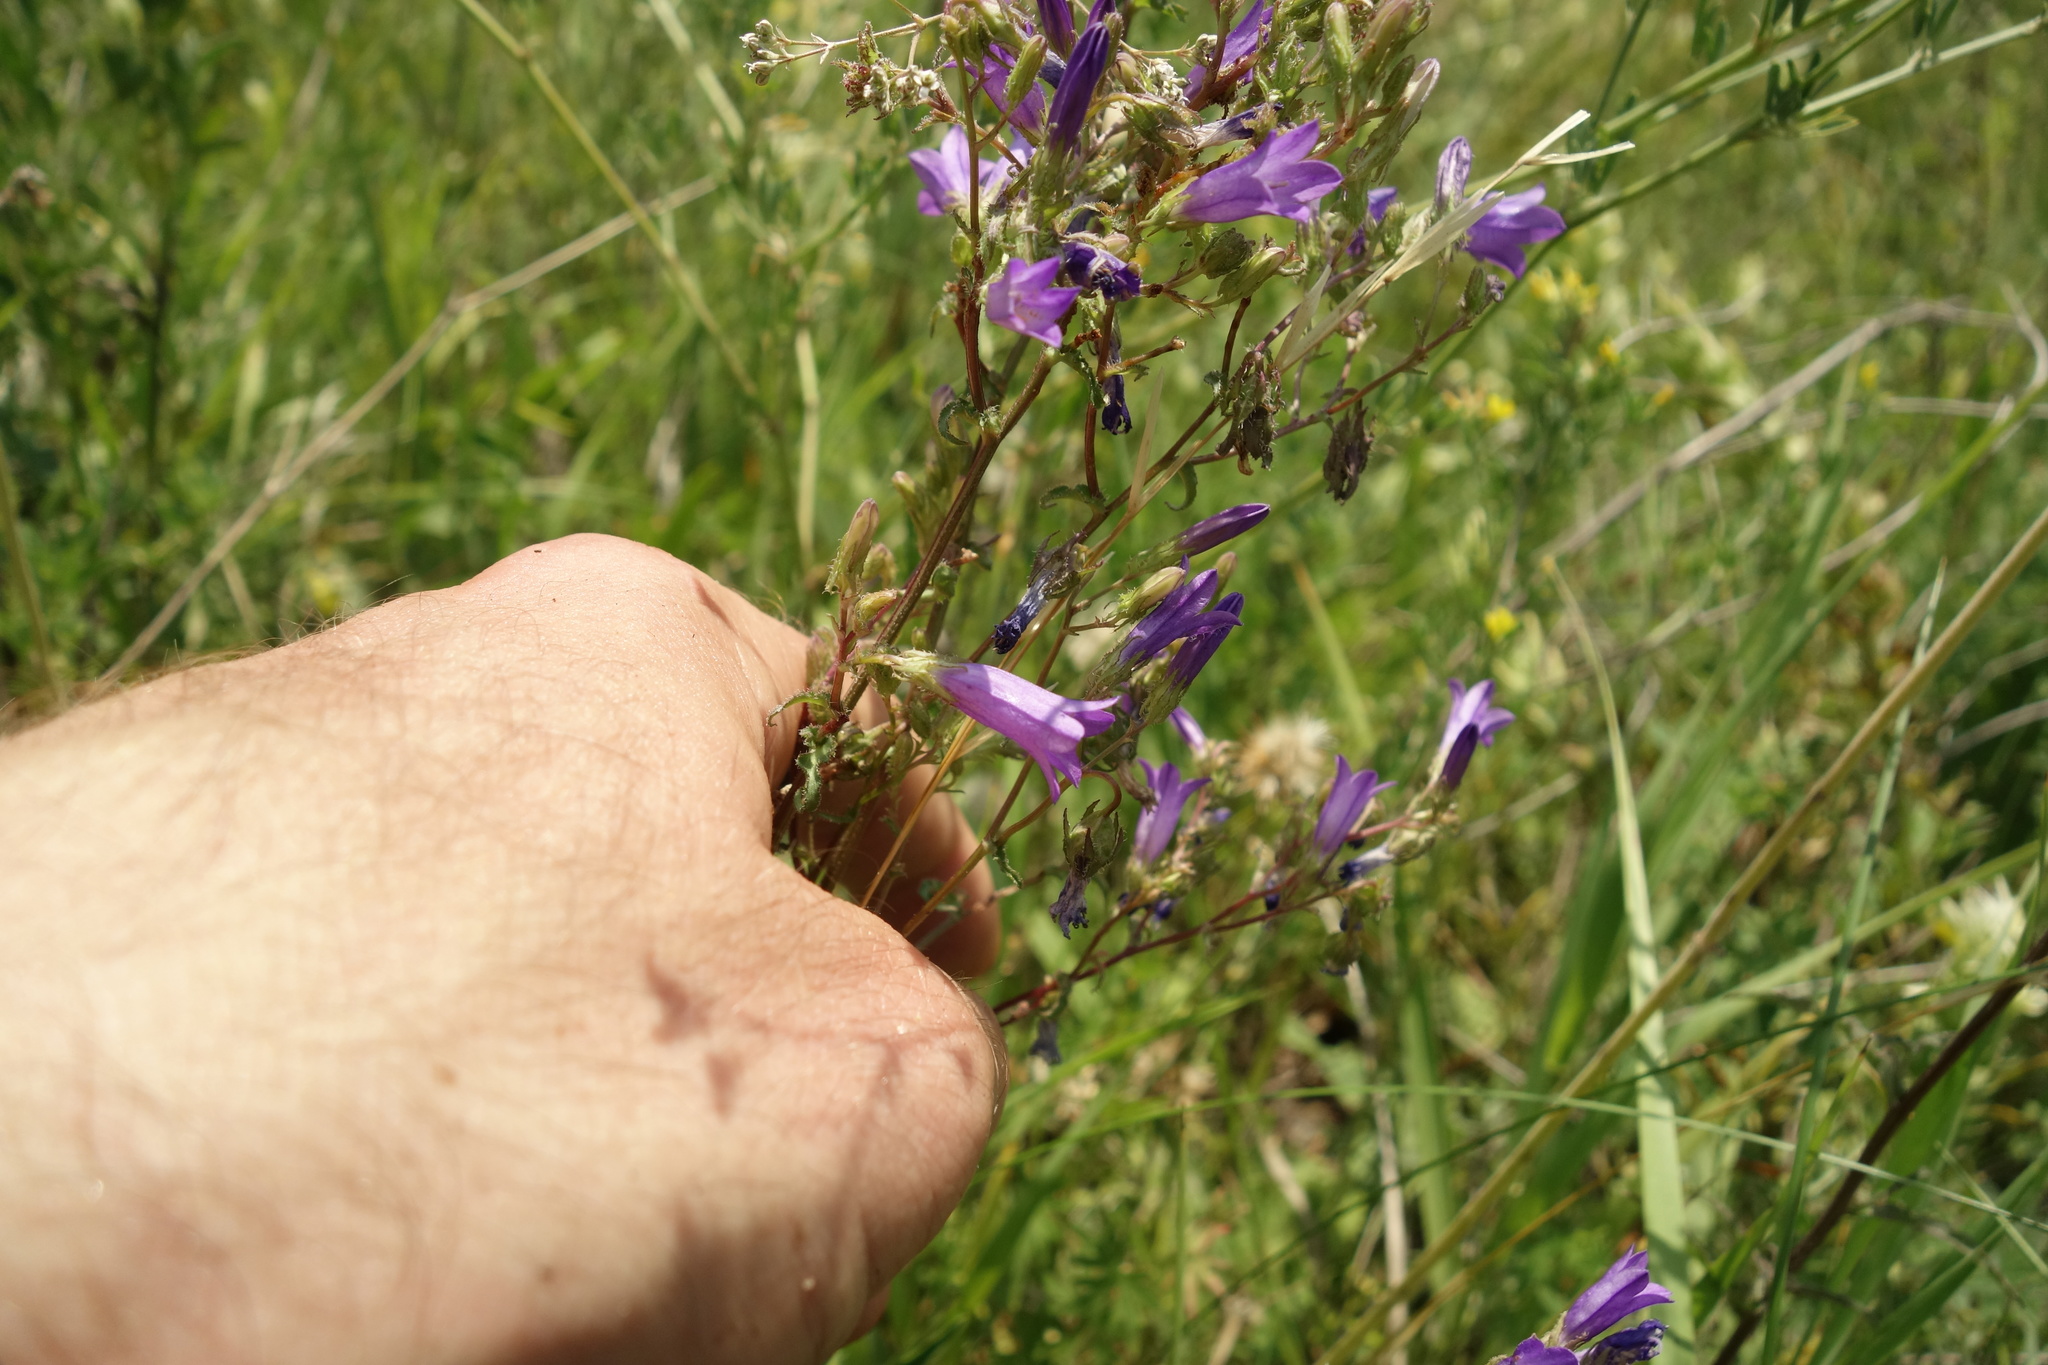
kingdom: Plantae
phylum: Tracheophyta
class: Magnoliopsida
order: Asterales
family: Campanulaceae
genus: Campanula
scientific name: Campanula sibirica
